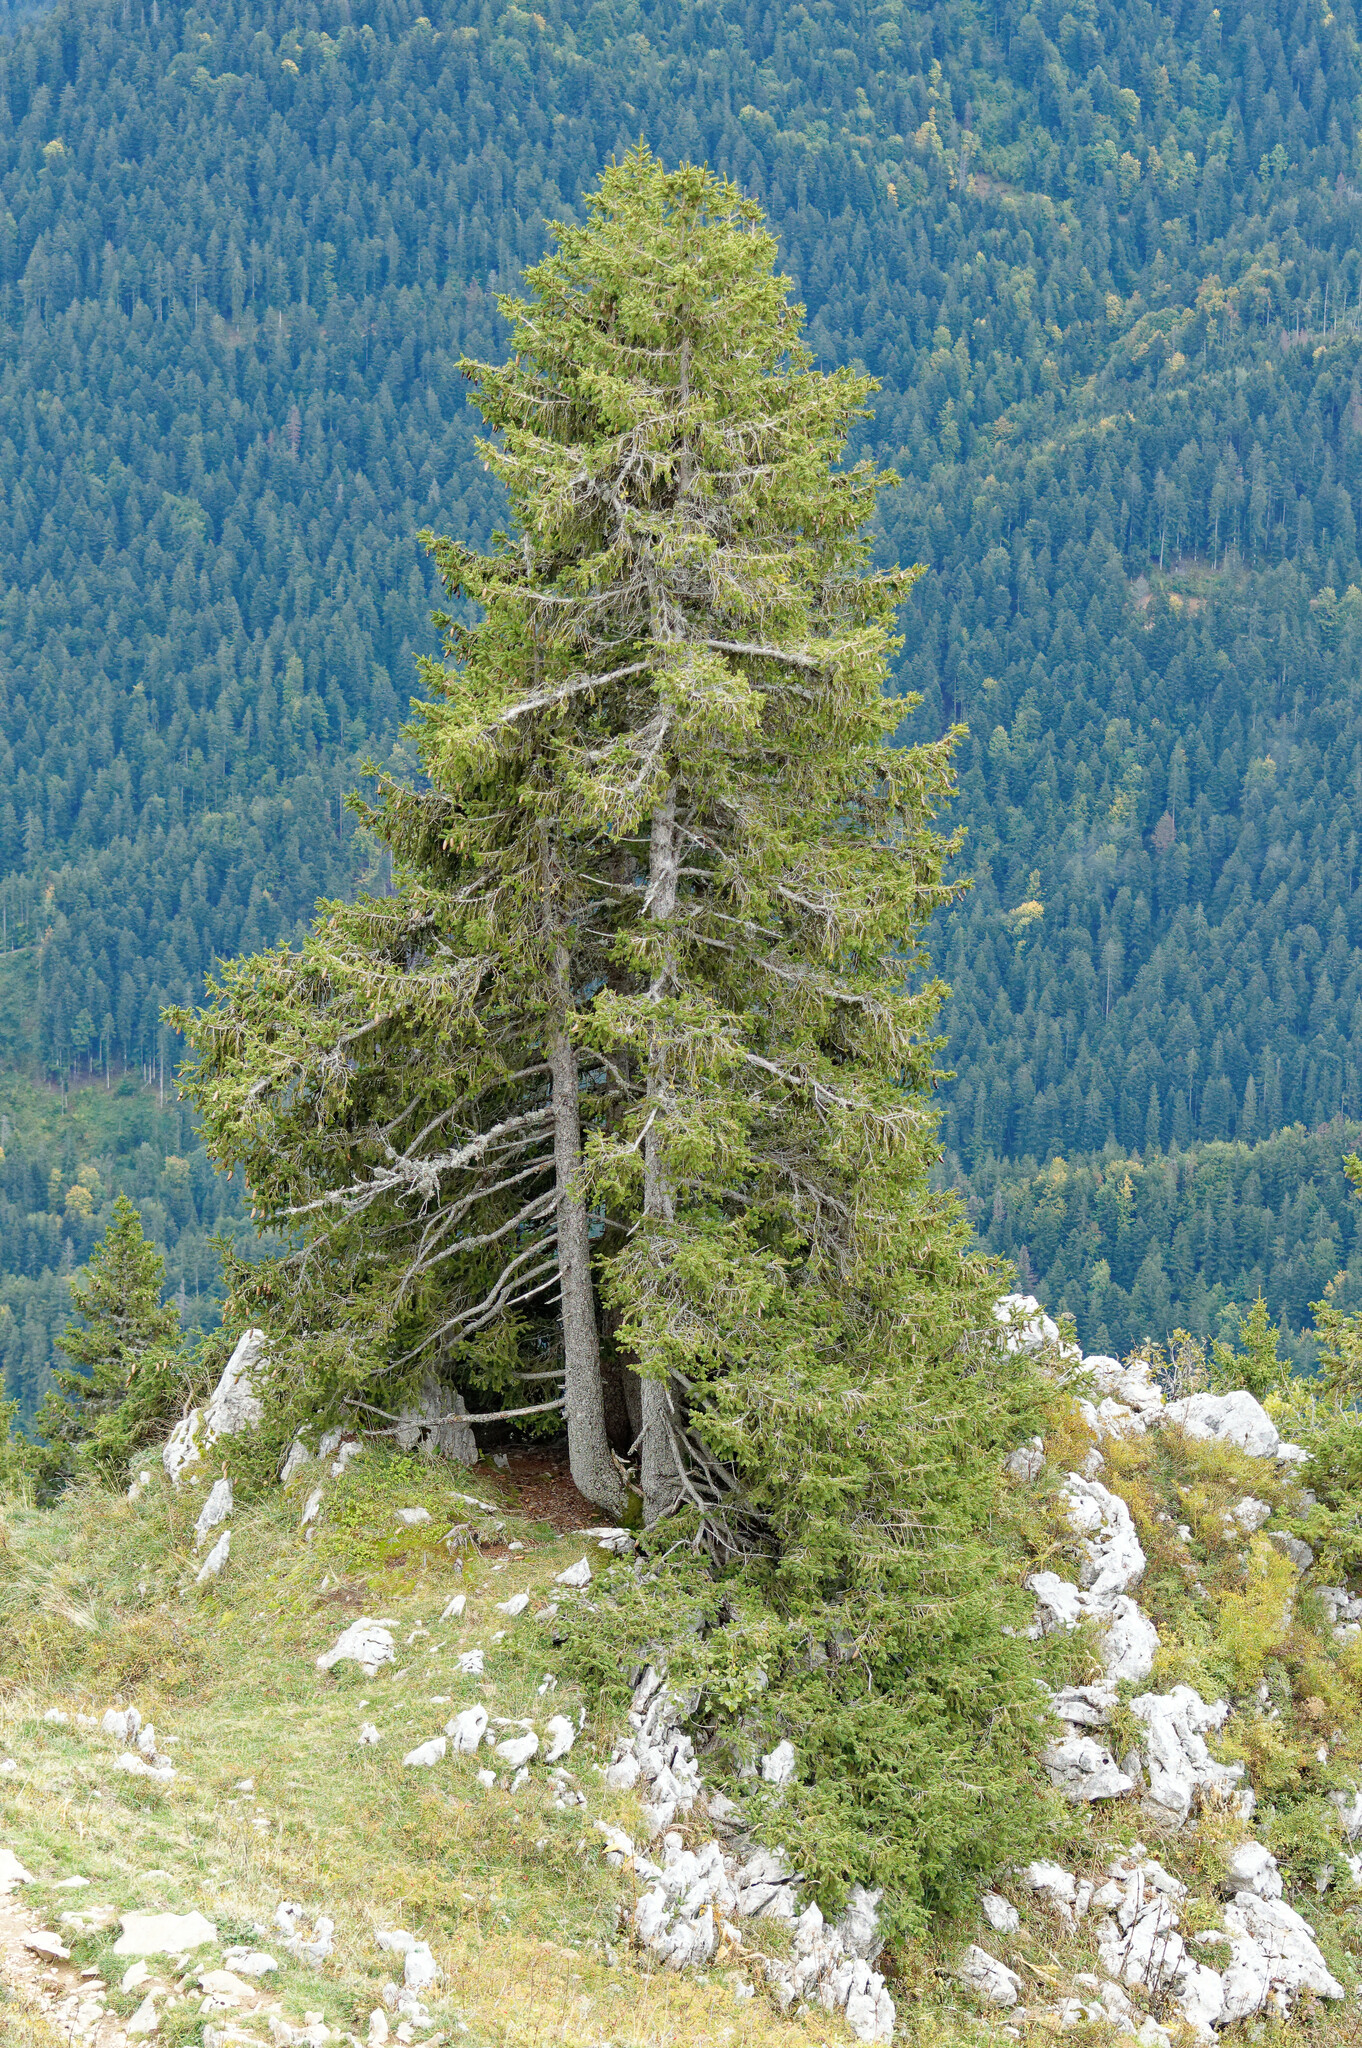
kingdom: Plantae
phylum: Tracheophyta
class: Pinopsida
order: Pinales
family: Pinaceae
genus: Picea
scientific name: Picea abies
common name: Norway spruce
